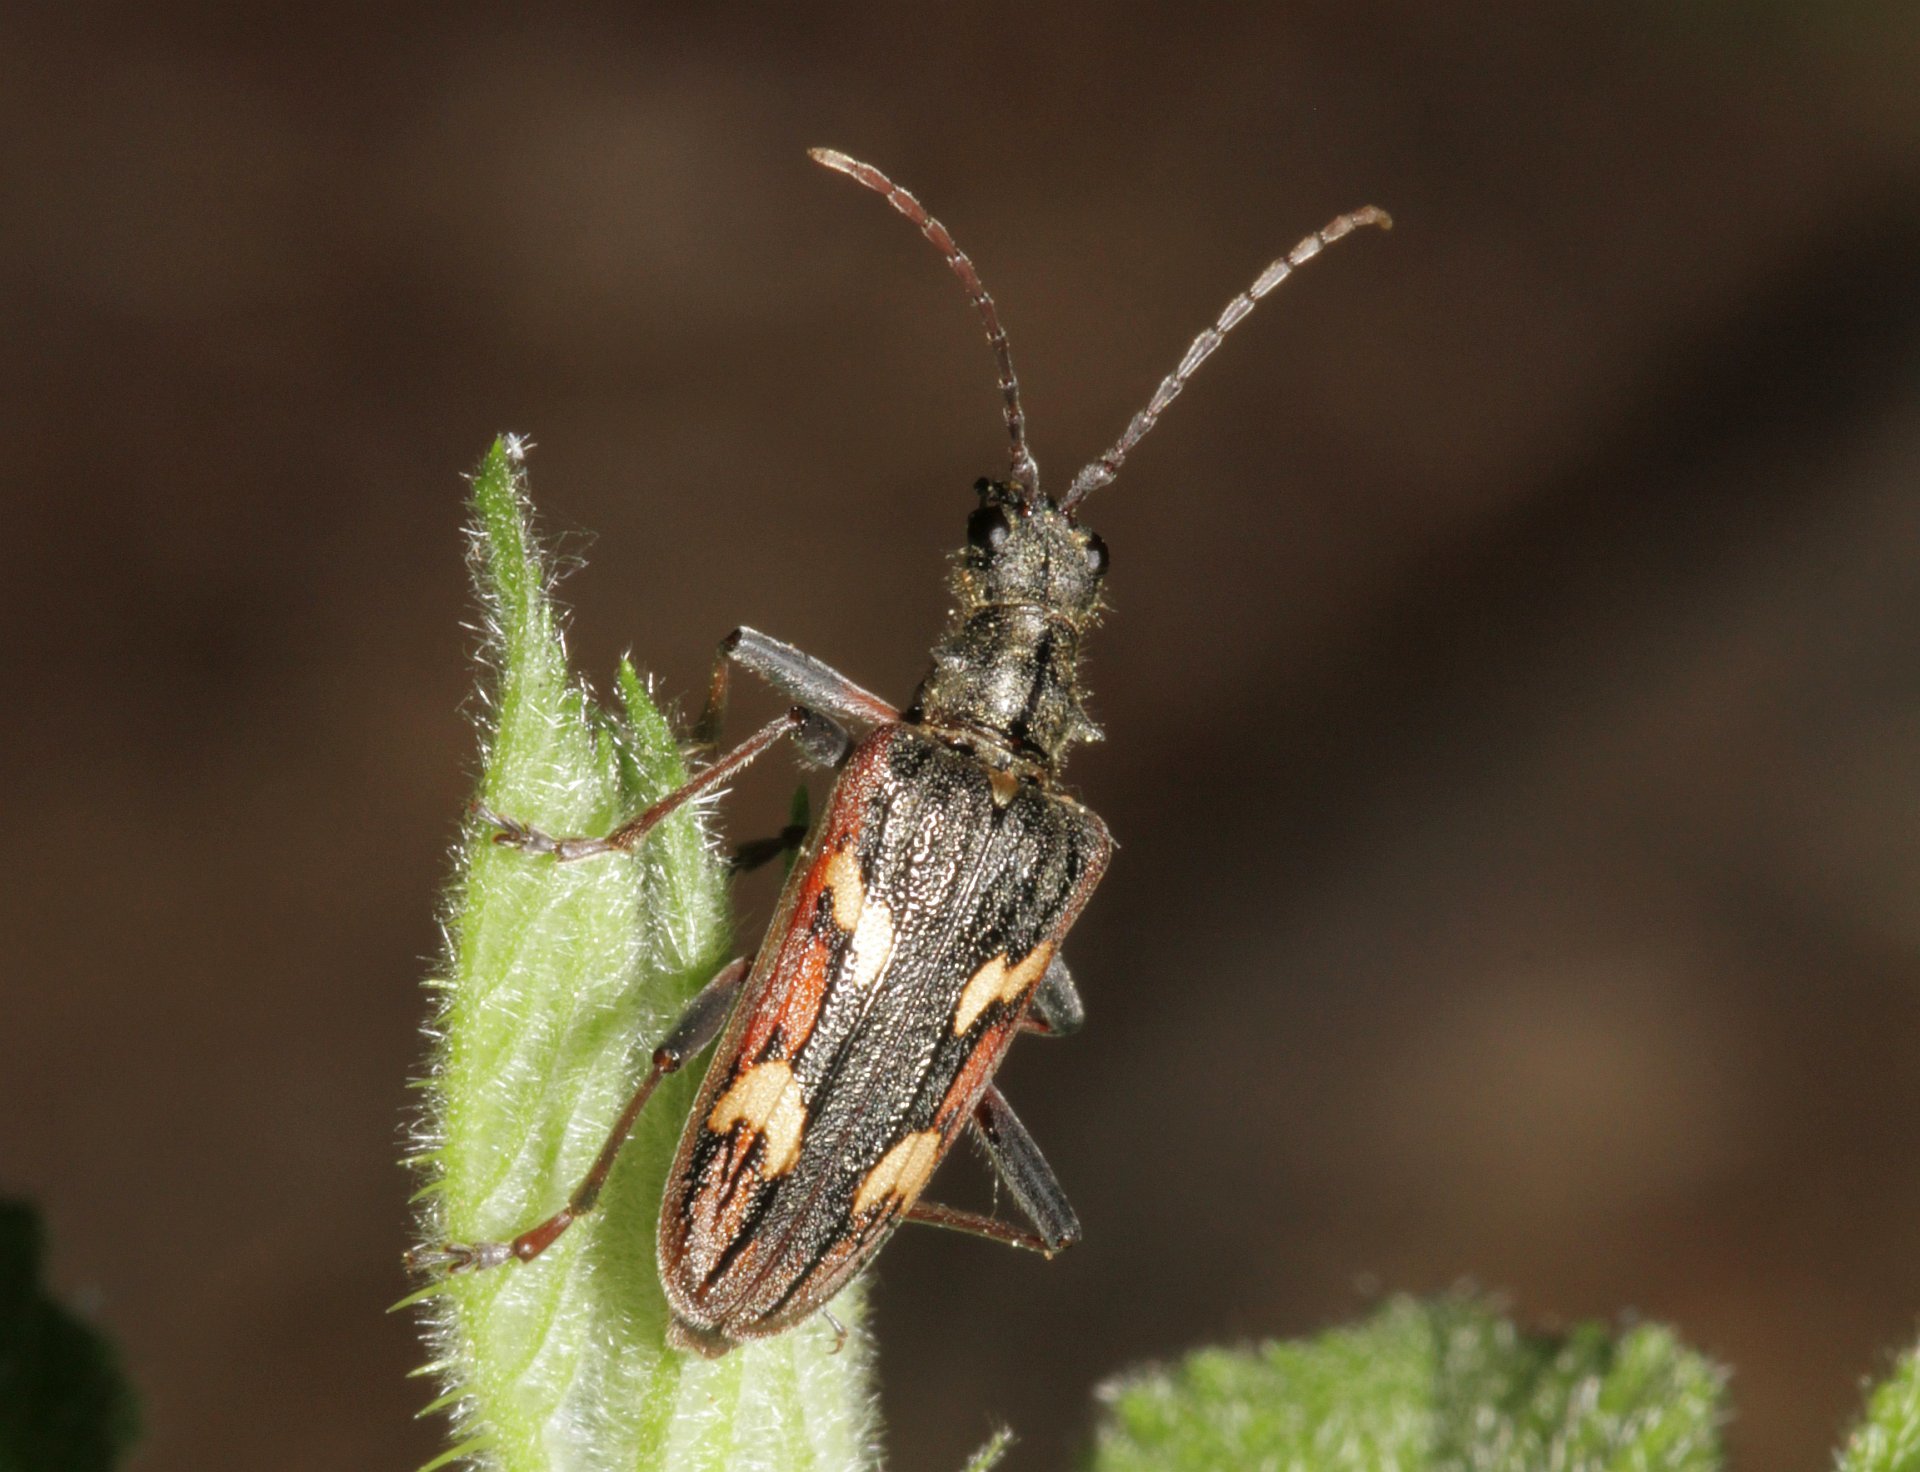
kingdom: Animalia
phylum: Arthropoda
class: Insecta
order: Coleoptera
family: Cerambycidae
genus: Rhagium
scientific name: Rhagium bifasciatum
